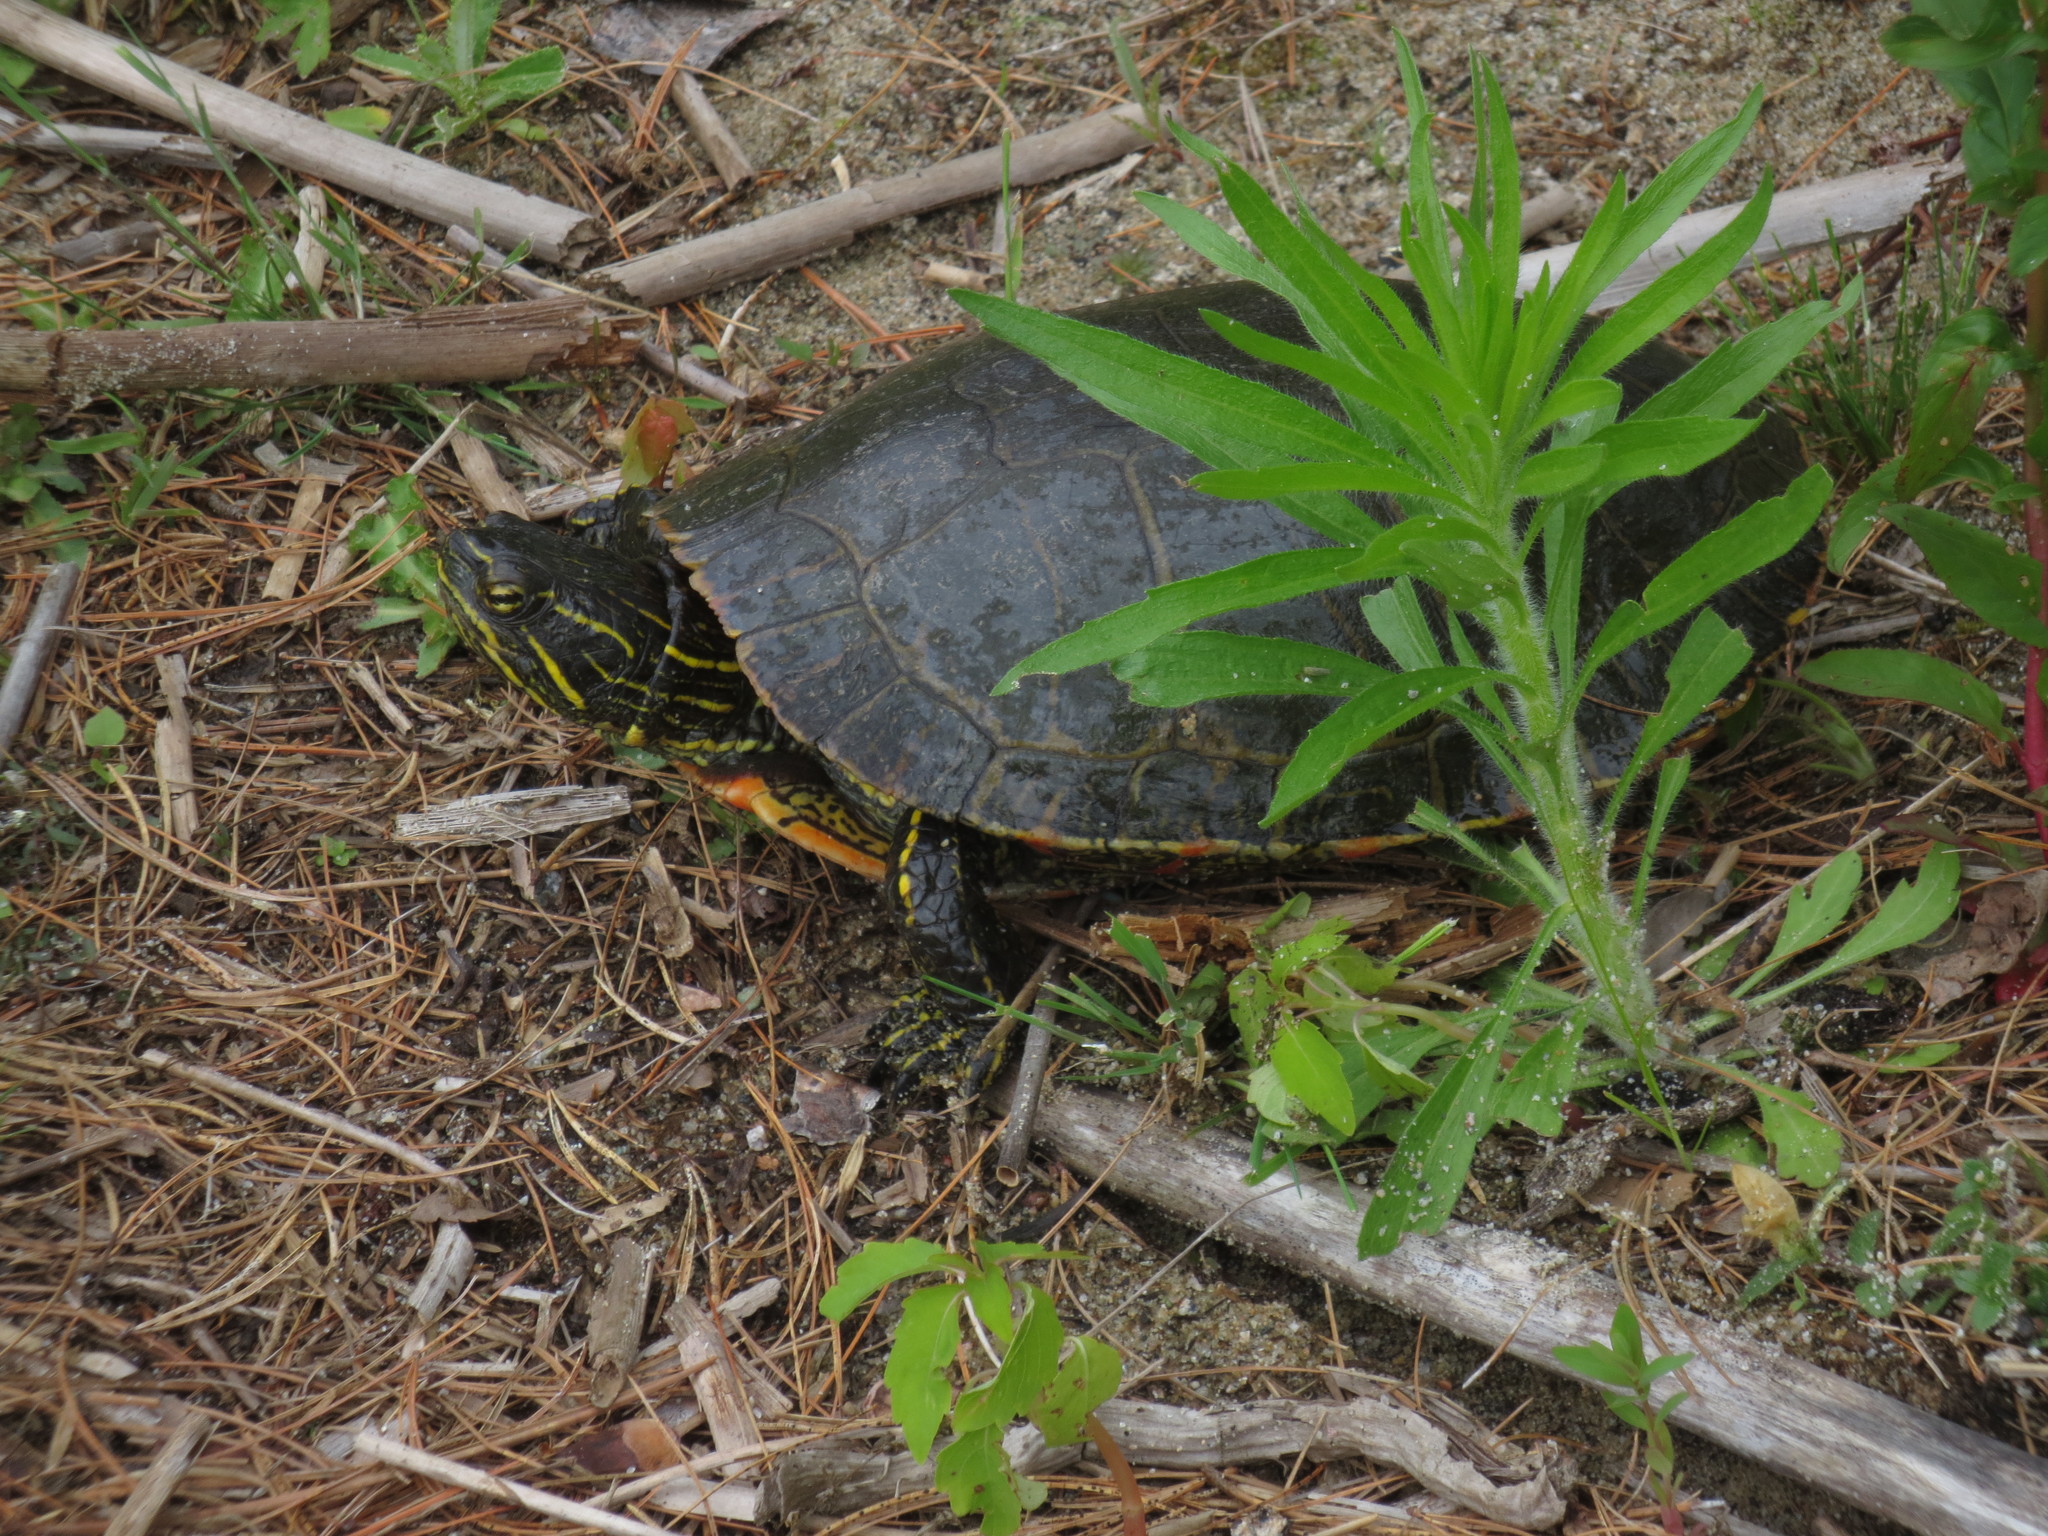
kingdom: Animalia
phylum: Chordata
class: Testudines
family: Emydidae
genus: Chrysemys
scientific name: Chrysemys picta
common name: Painted turtle
